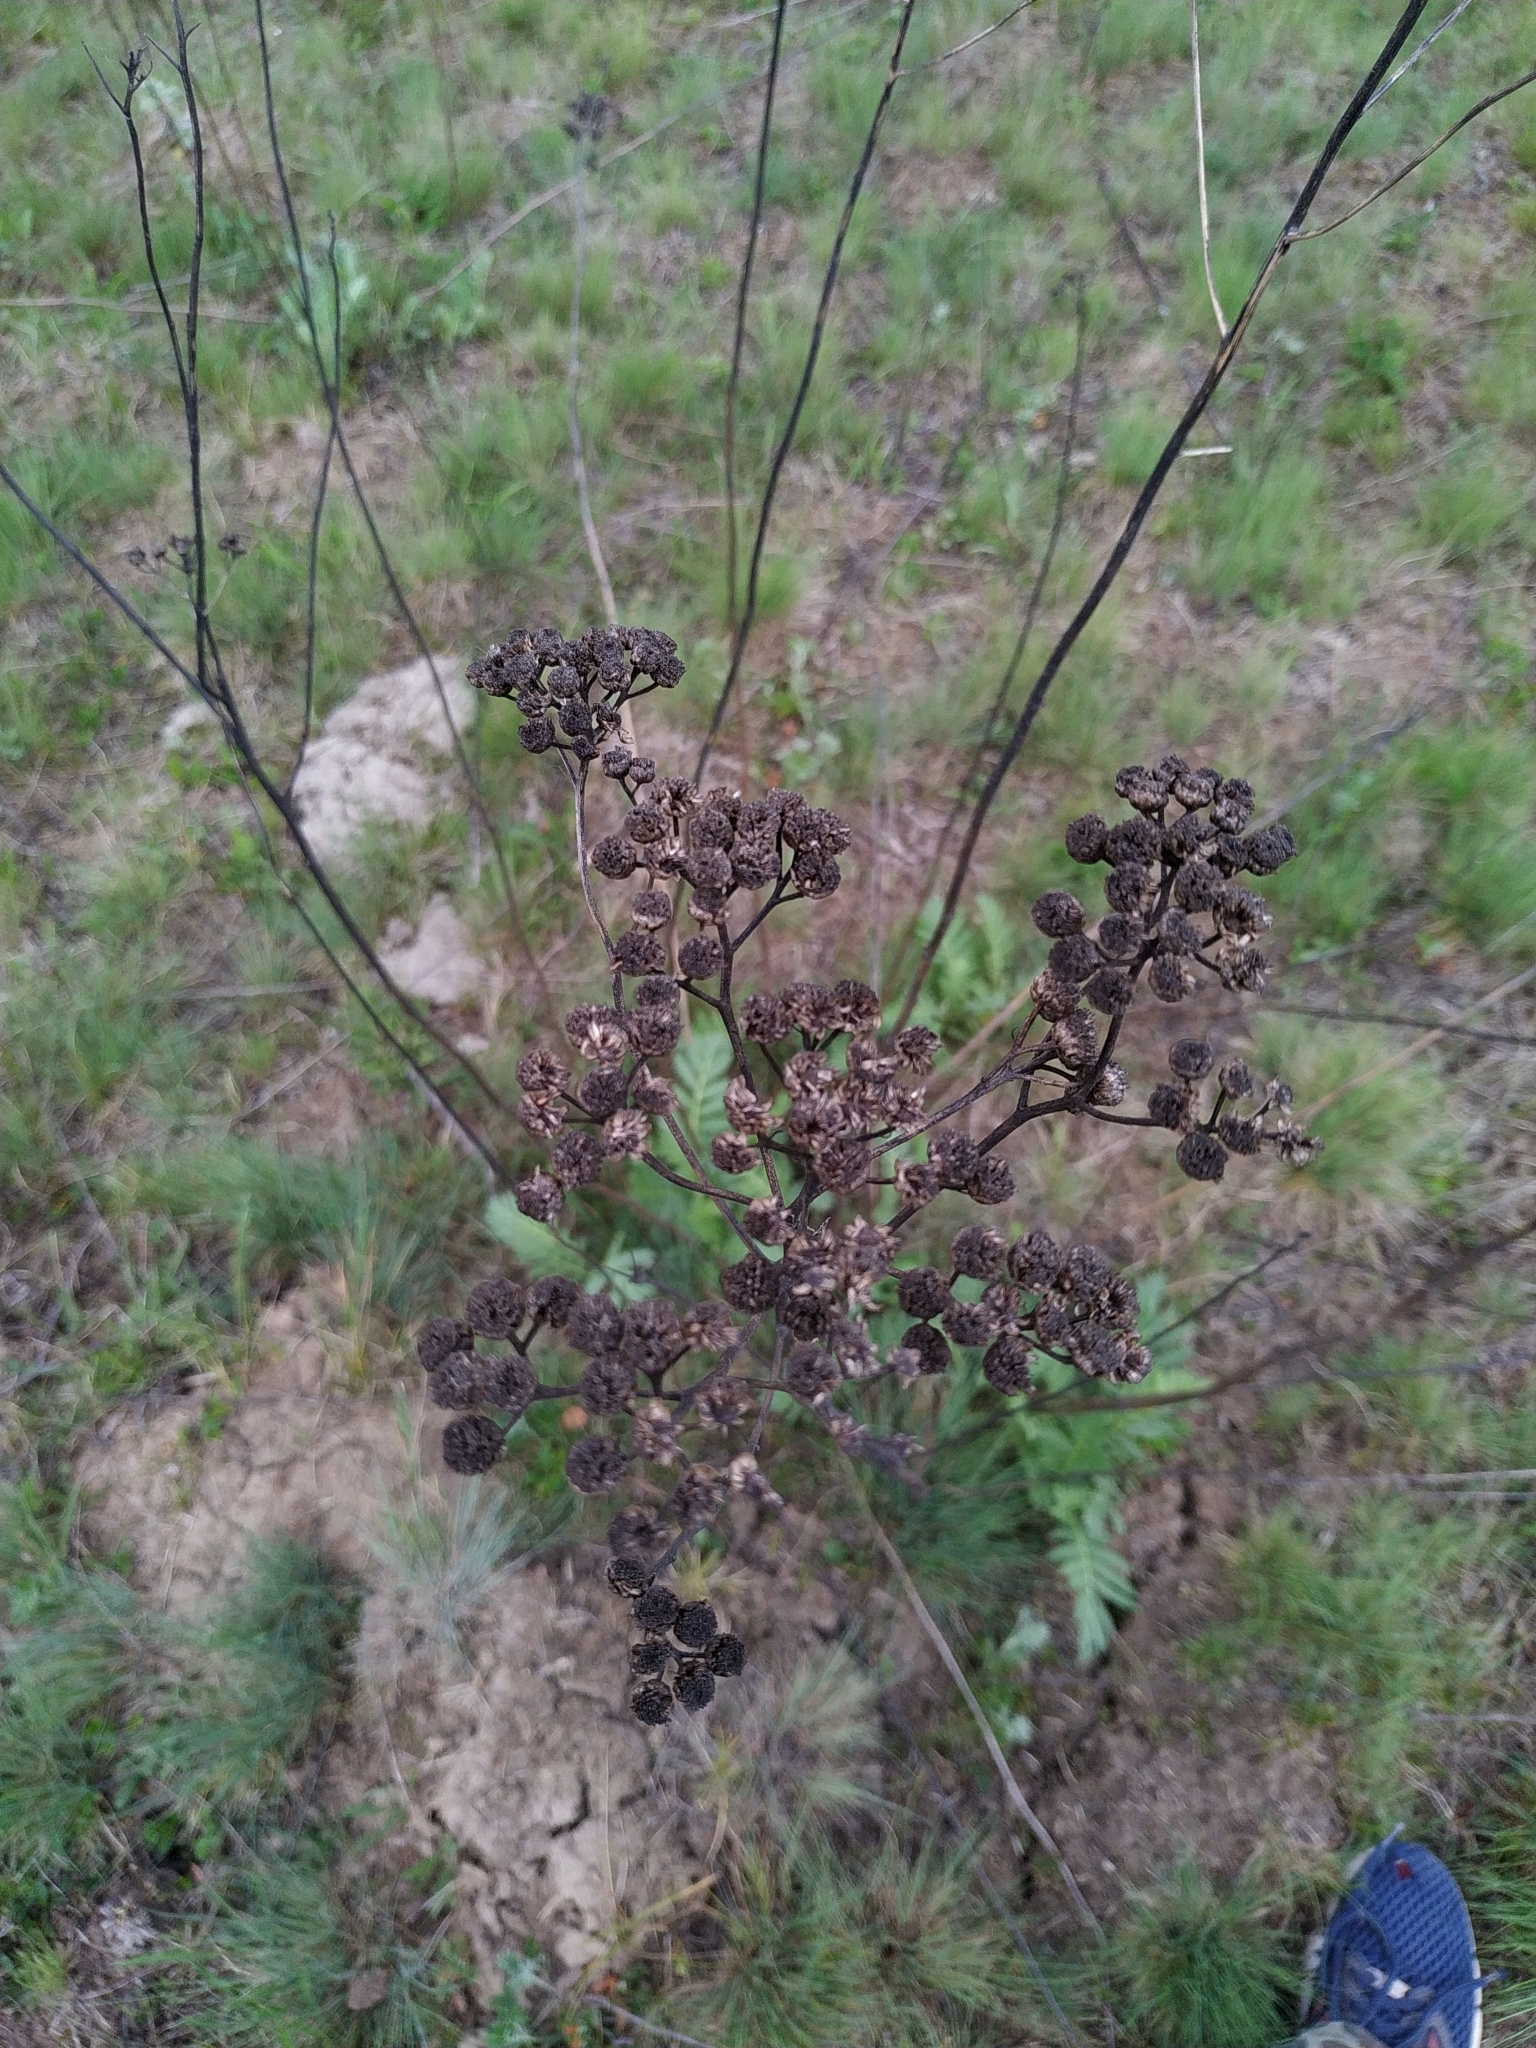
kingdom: Plantae
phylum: Tracheophyta
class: Magnoliopsida
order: Asterales
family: Asteraceae
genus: Tanacetum
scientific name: Tanacetum vulgare
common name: Common tansy
